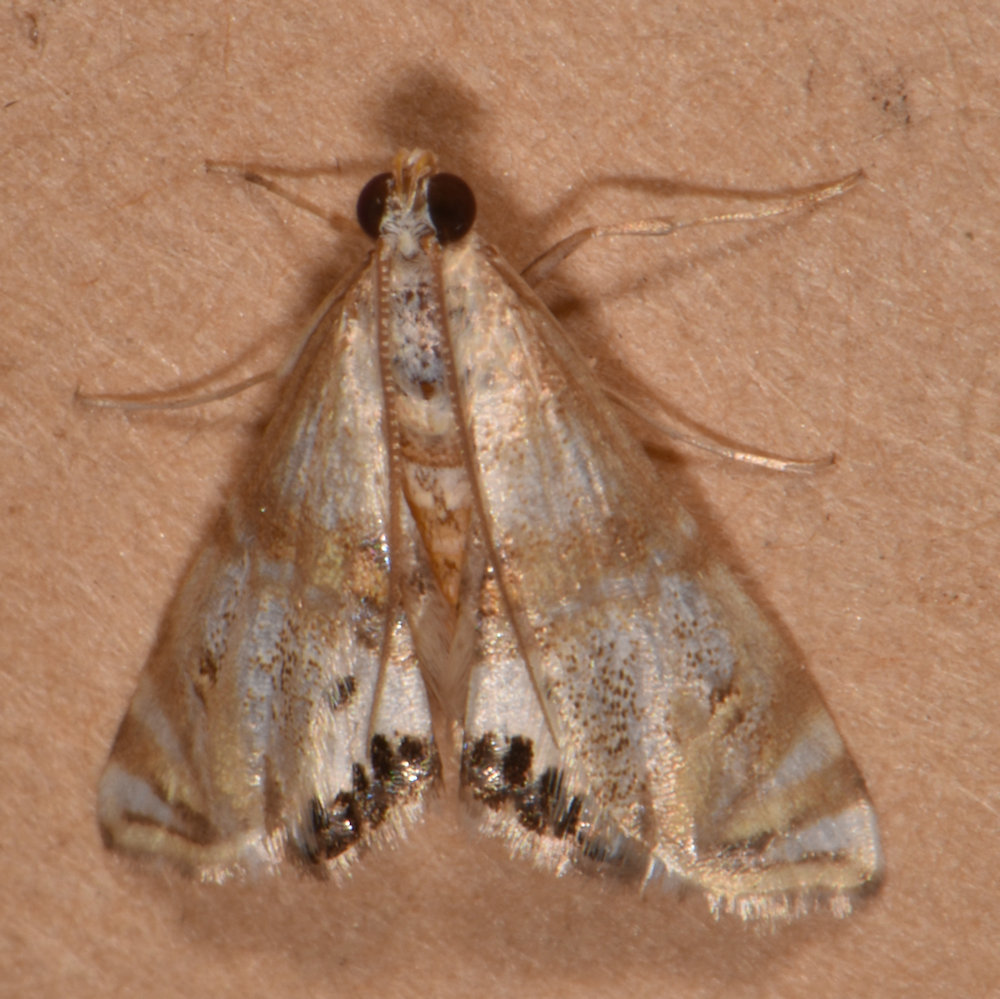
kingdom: Animalia
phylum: Arthropoda
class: Insecta
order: Lepidoptera
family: Crambidae
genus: Petrophila
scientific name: Petrophila bifascialis
